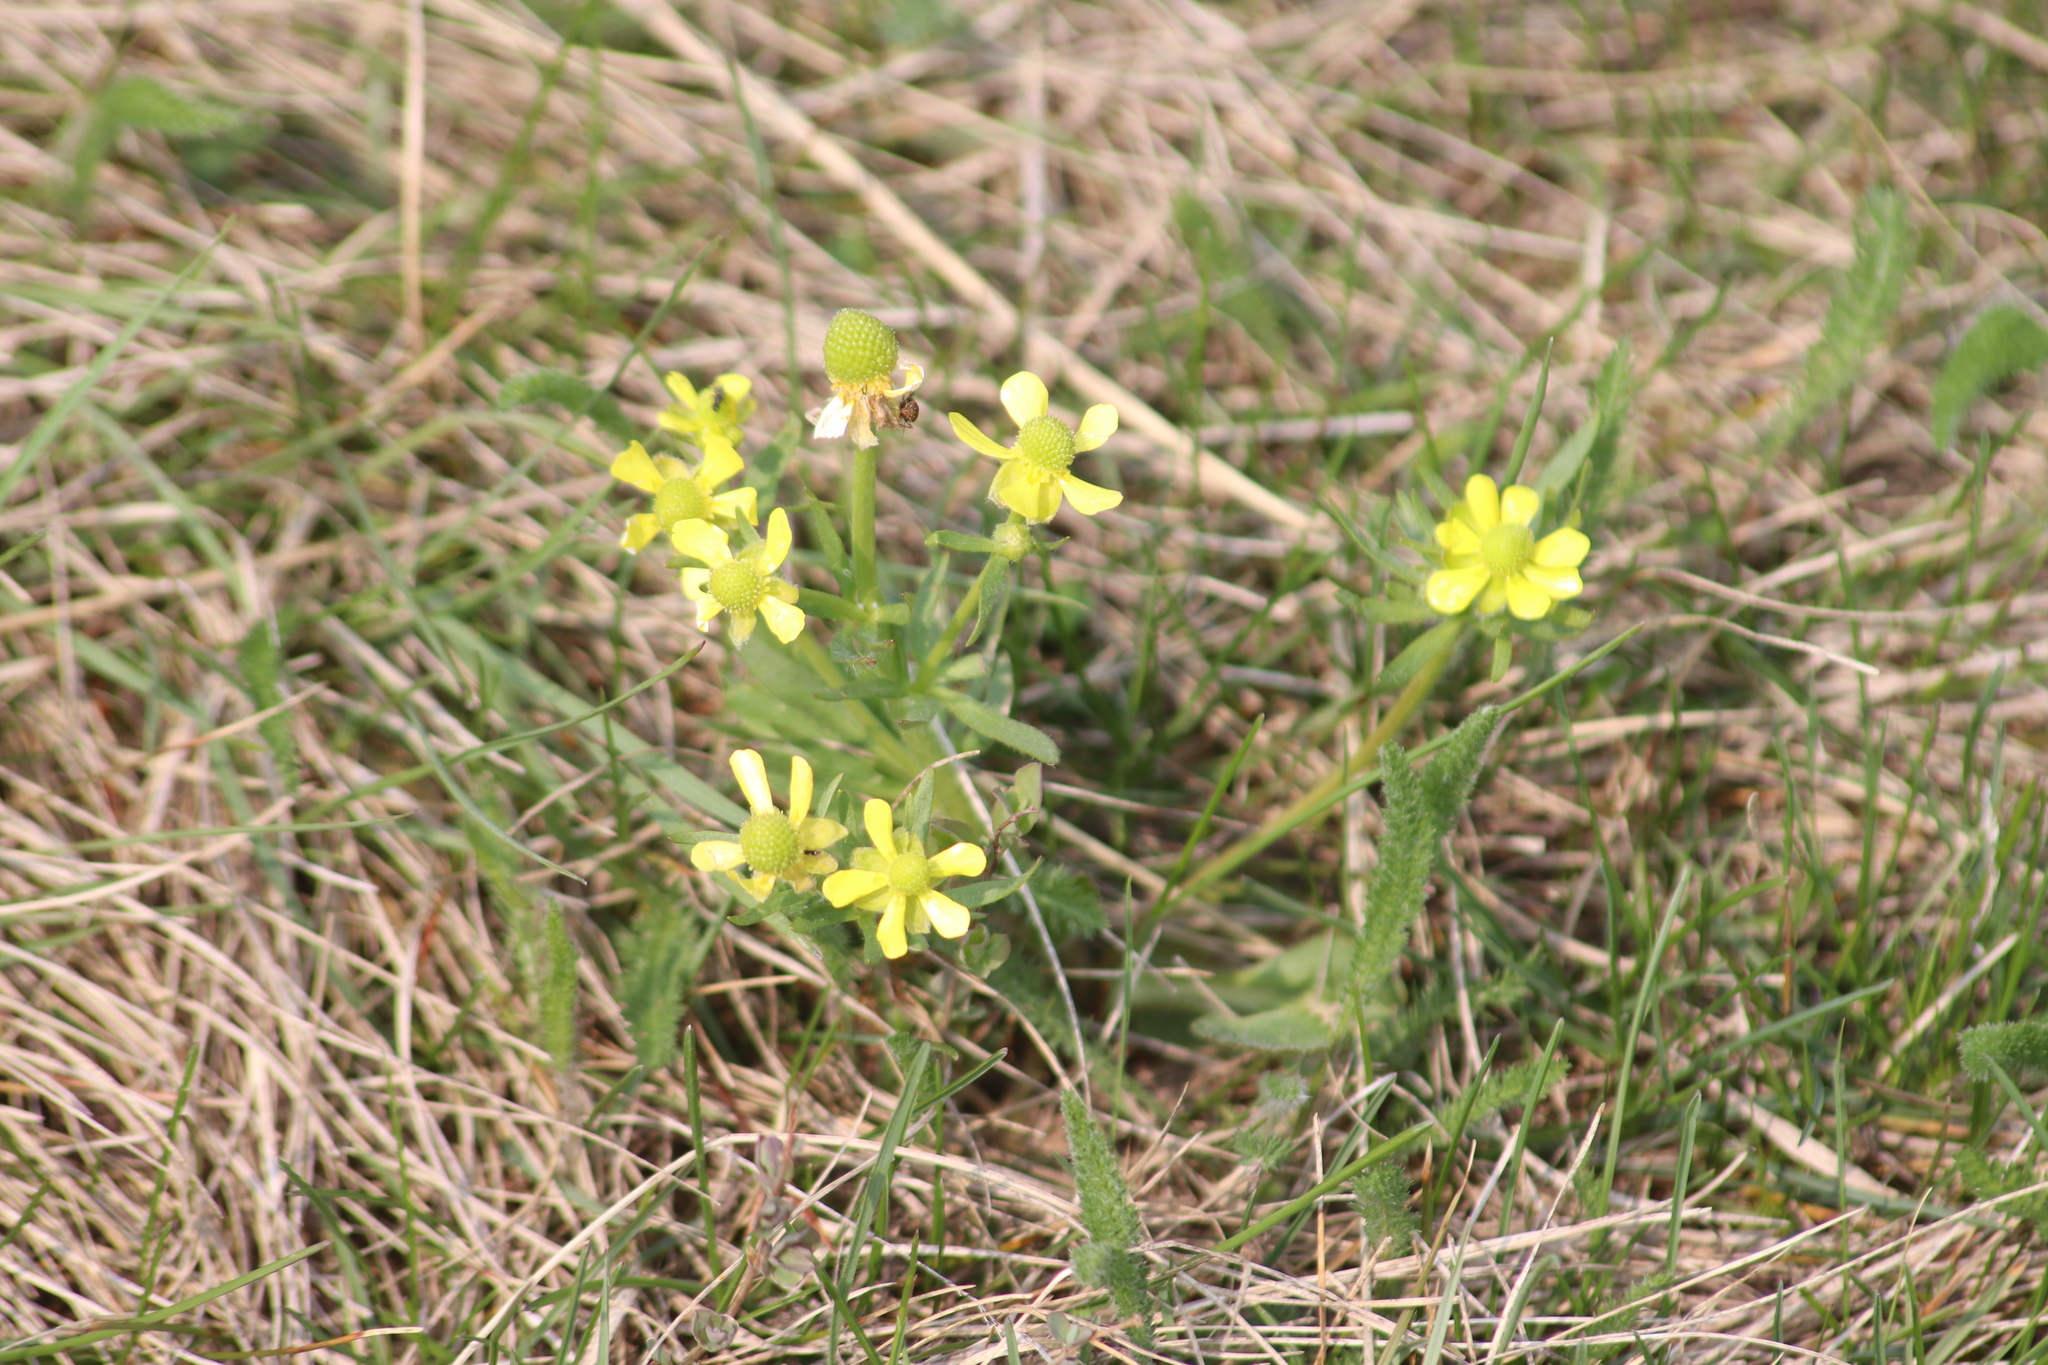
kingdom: Plantae
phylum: Tracheophyta
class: Magnoliopsida
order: Ranunculales
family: Ranunculaceae
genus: Ranunculus
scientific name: Ranunculus rhomboideus
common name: Prairie buttercup
